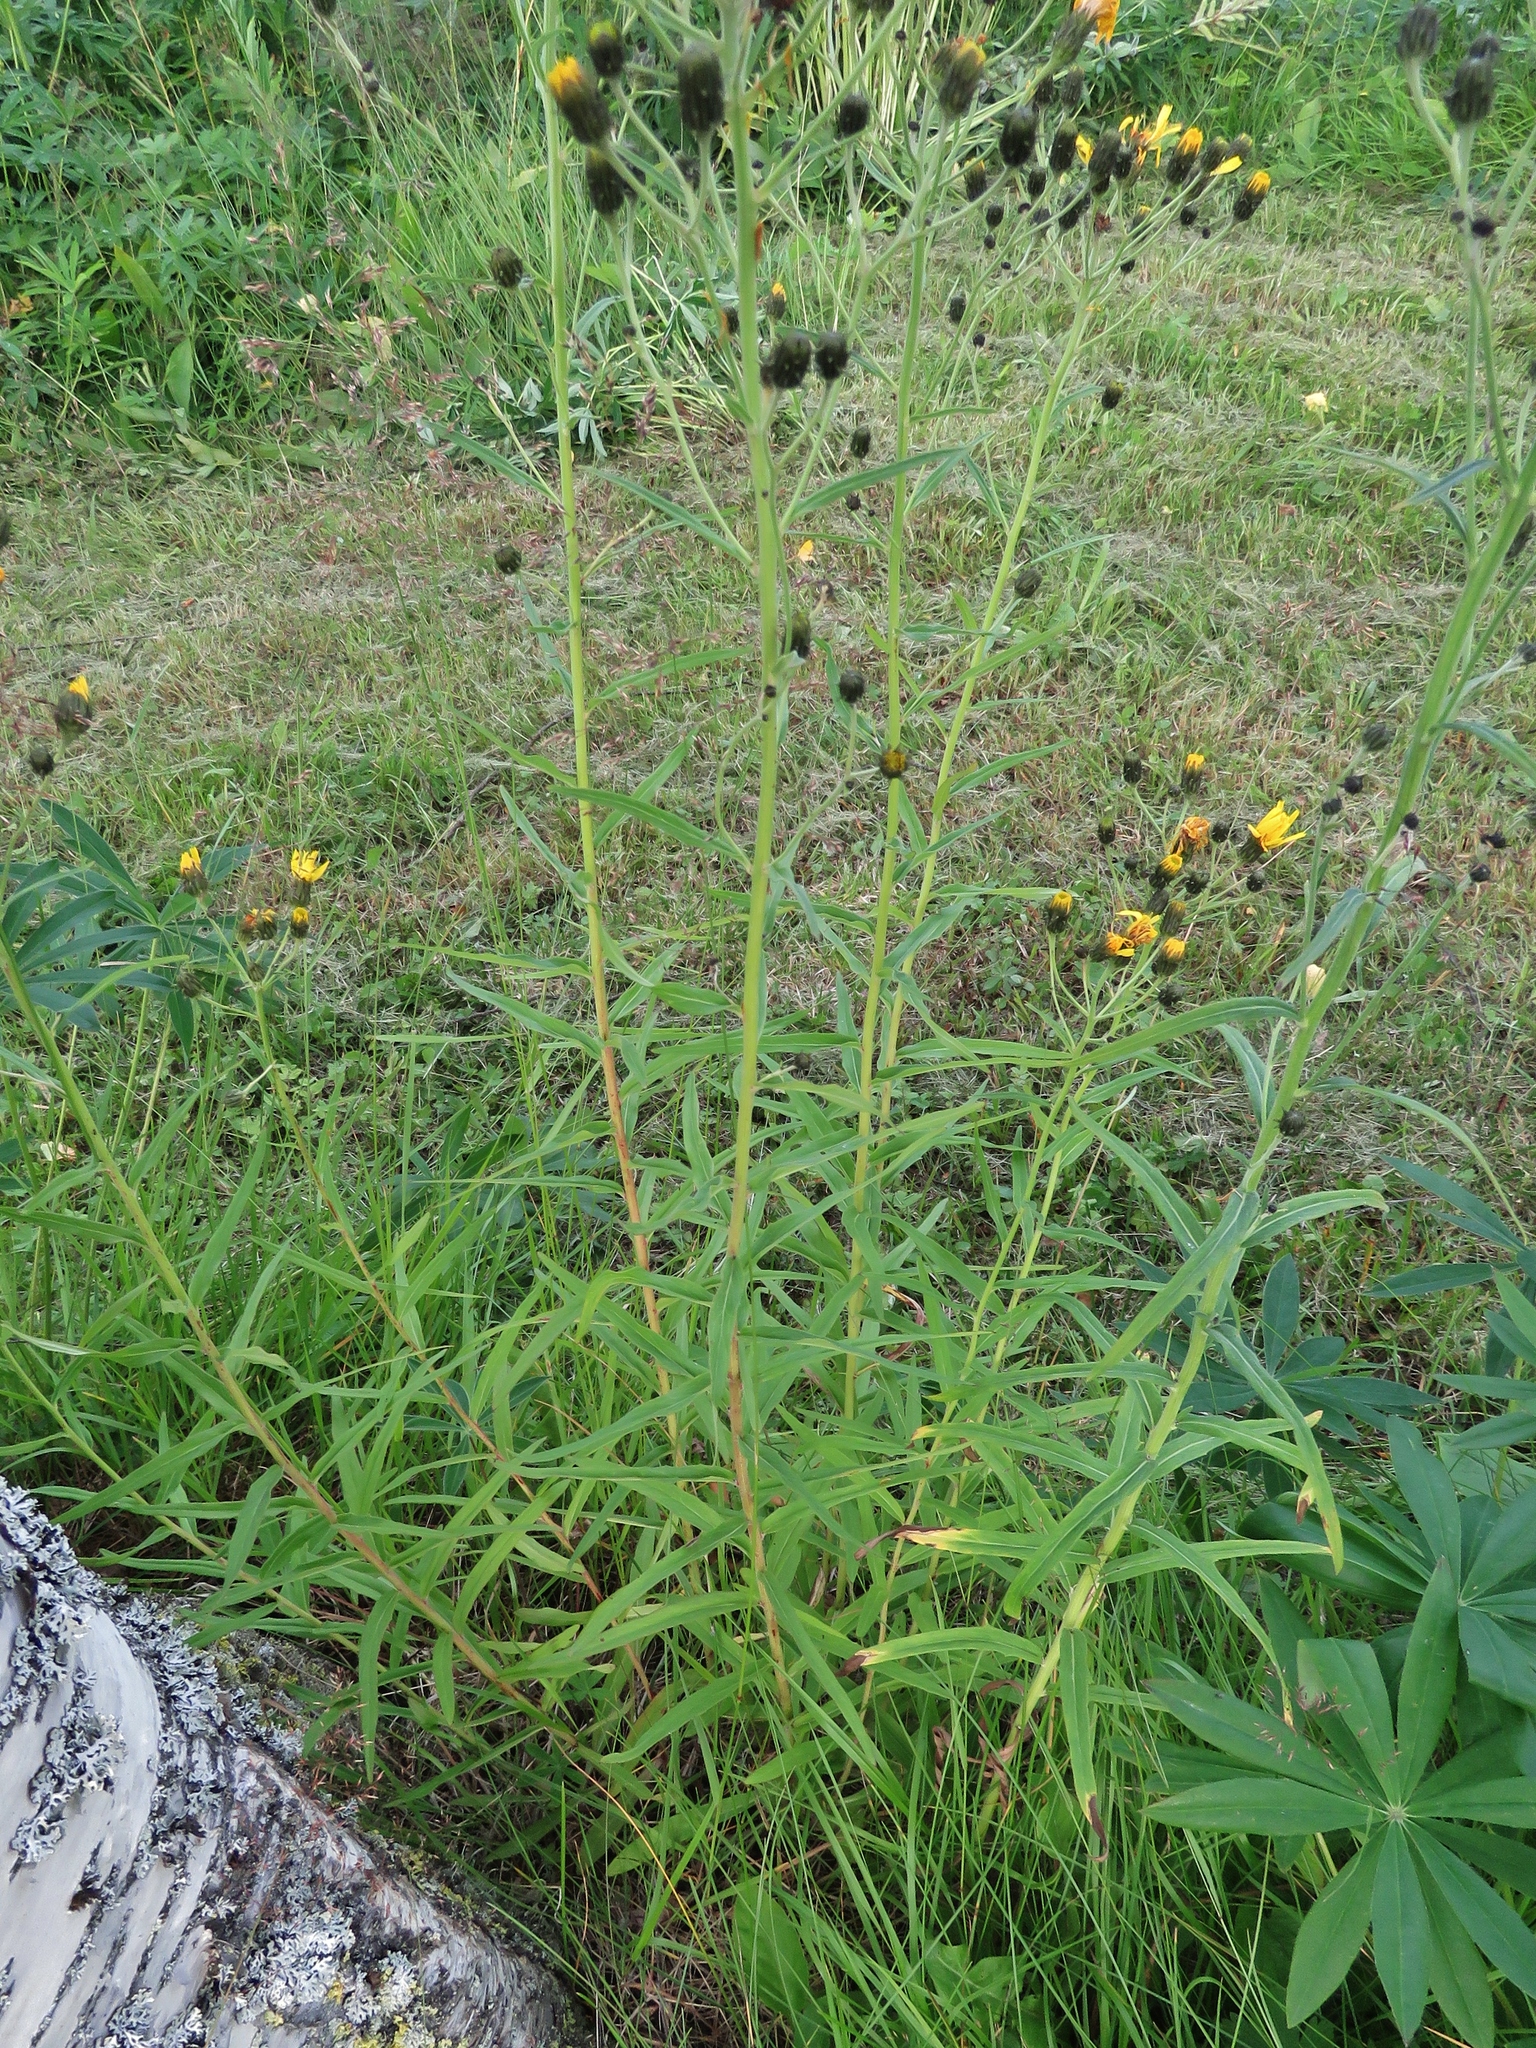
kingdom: Plantae
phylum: Tracheophyta
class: Magnoliopsida
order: Asterales
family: Asteraceae
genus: Hieracium
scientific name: Hieracium umbellatum
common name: Northern hawkweed
